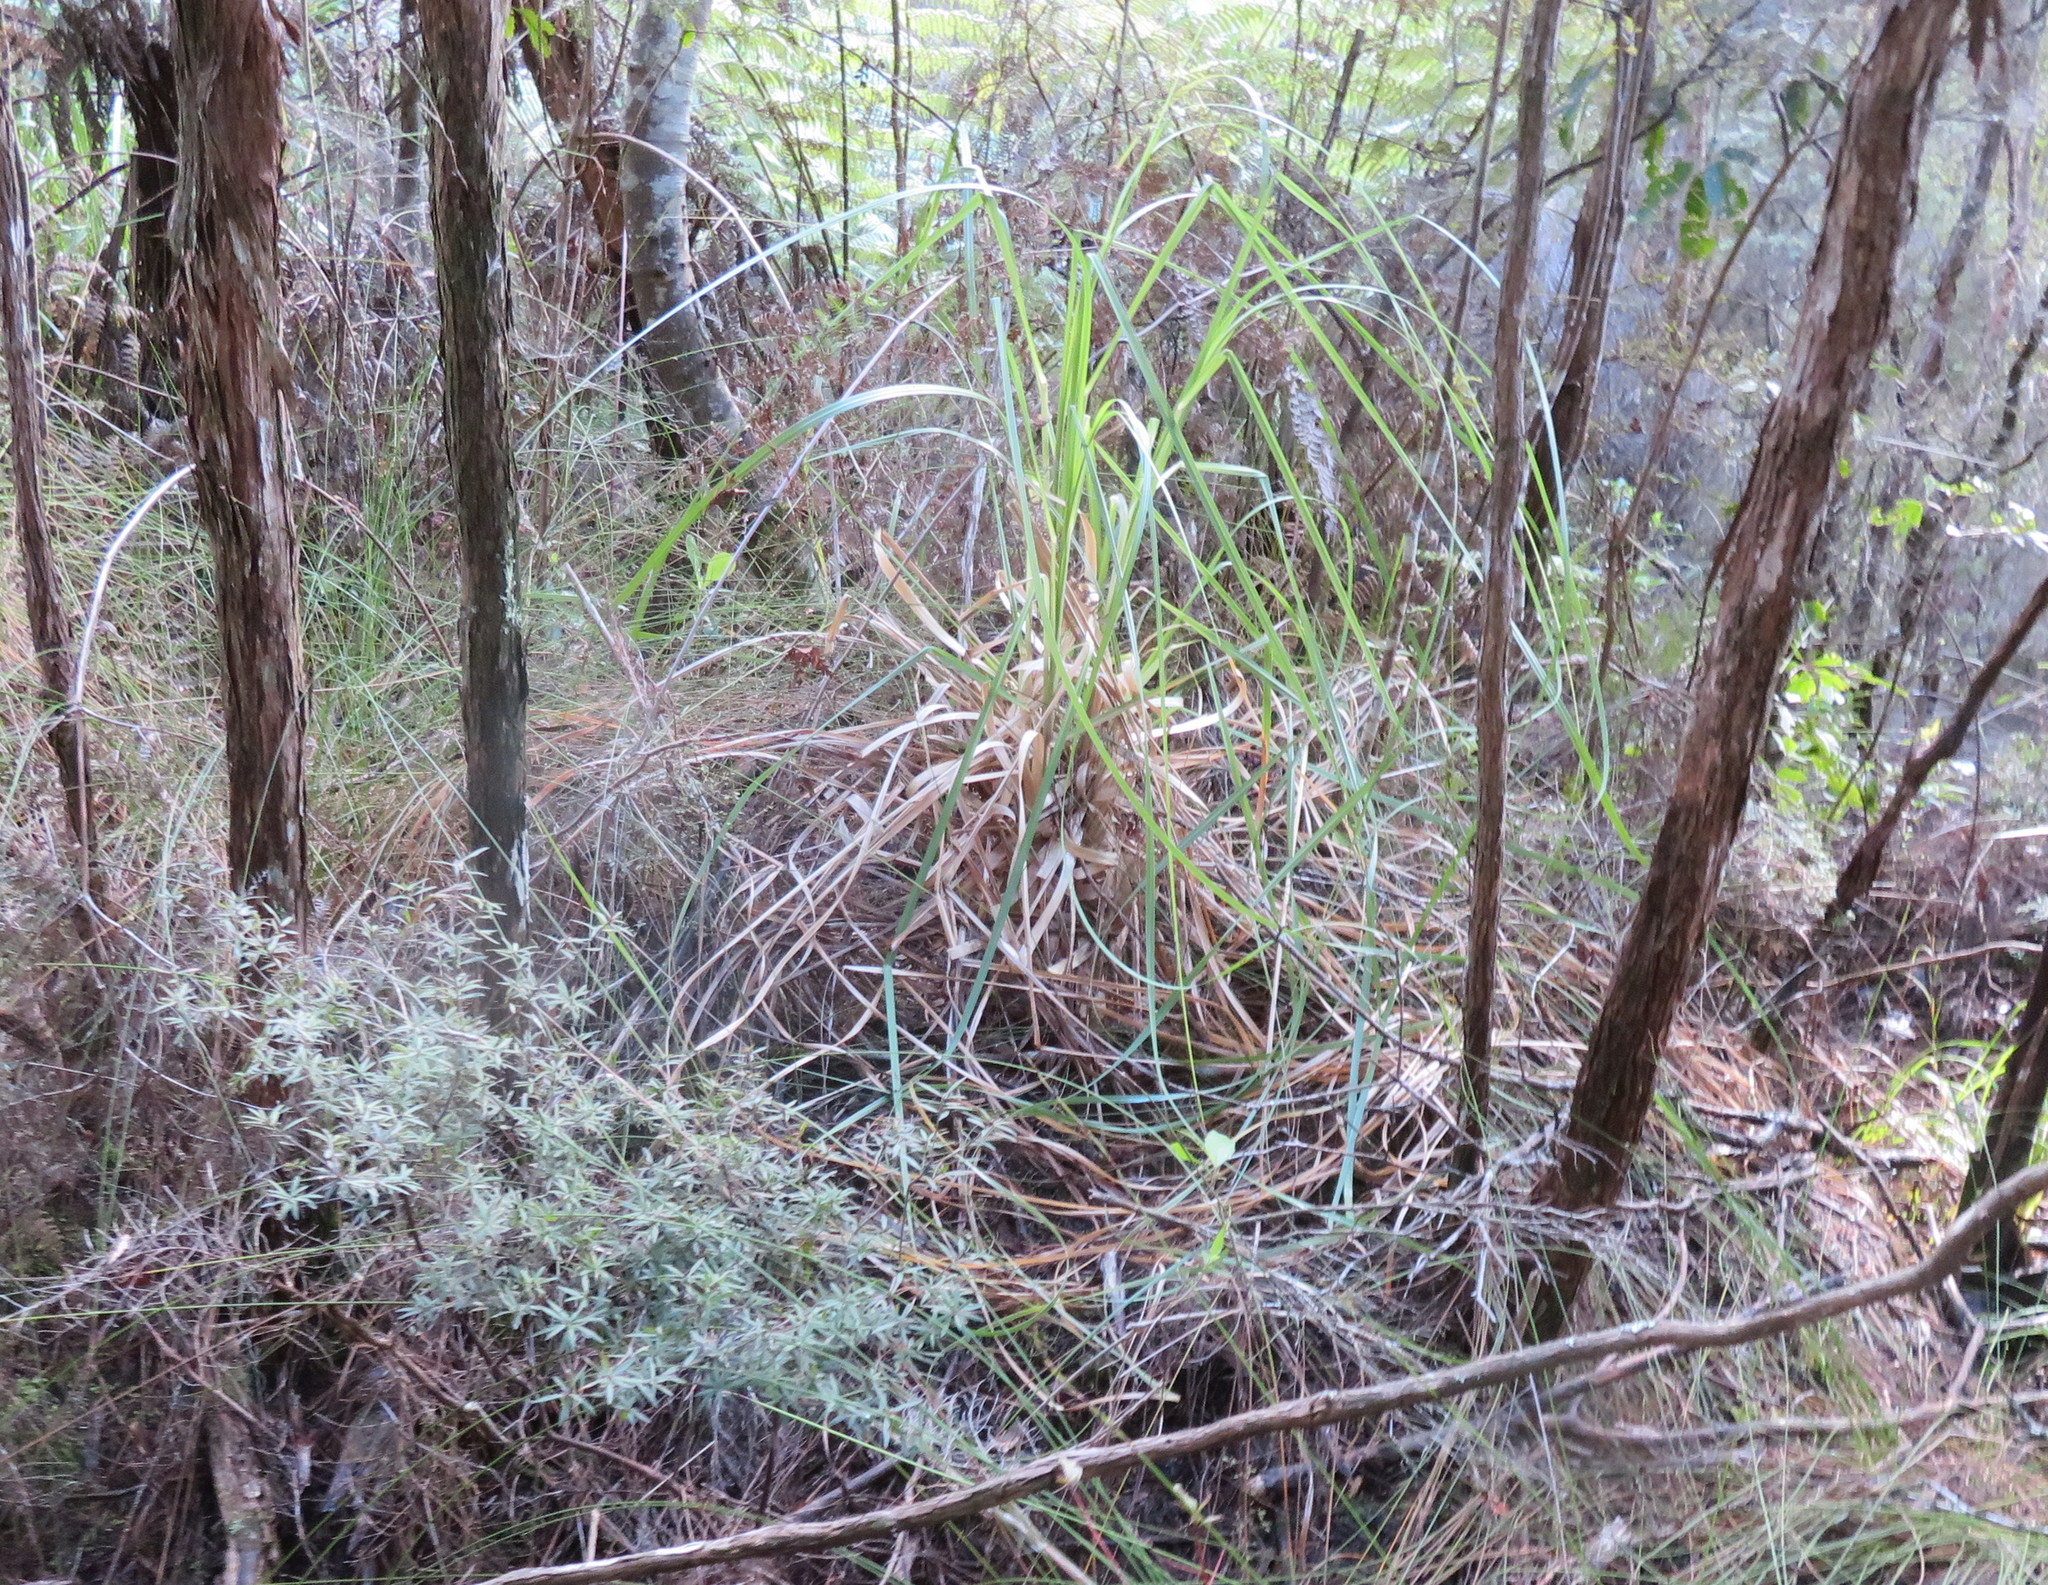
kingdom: Plantae
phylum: Tracheophyta
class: Liliopsida
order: Poales
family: Poaceae
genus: Cortaderia
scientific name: Cortaderia selloana
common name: Uruguayan pampas grass
